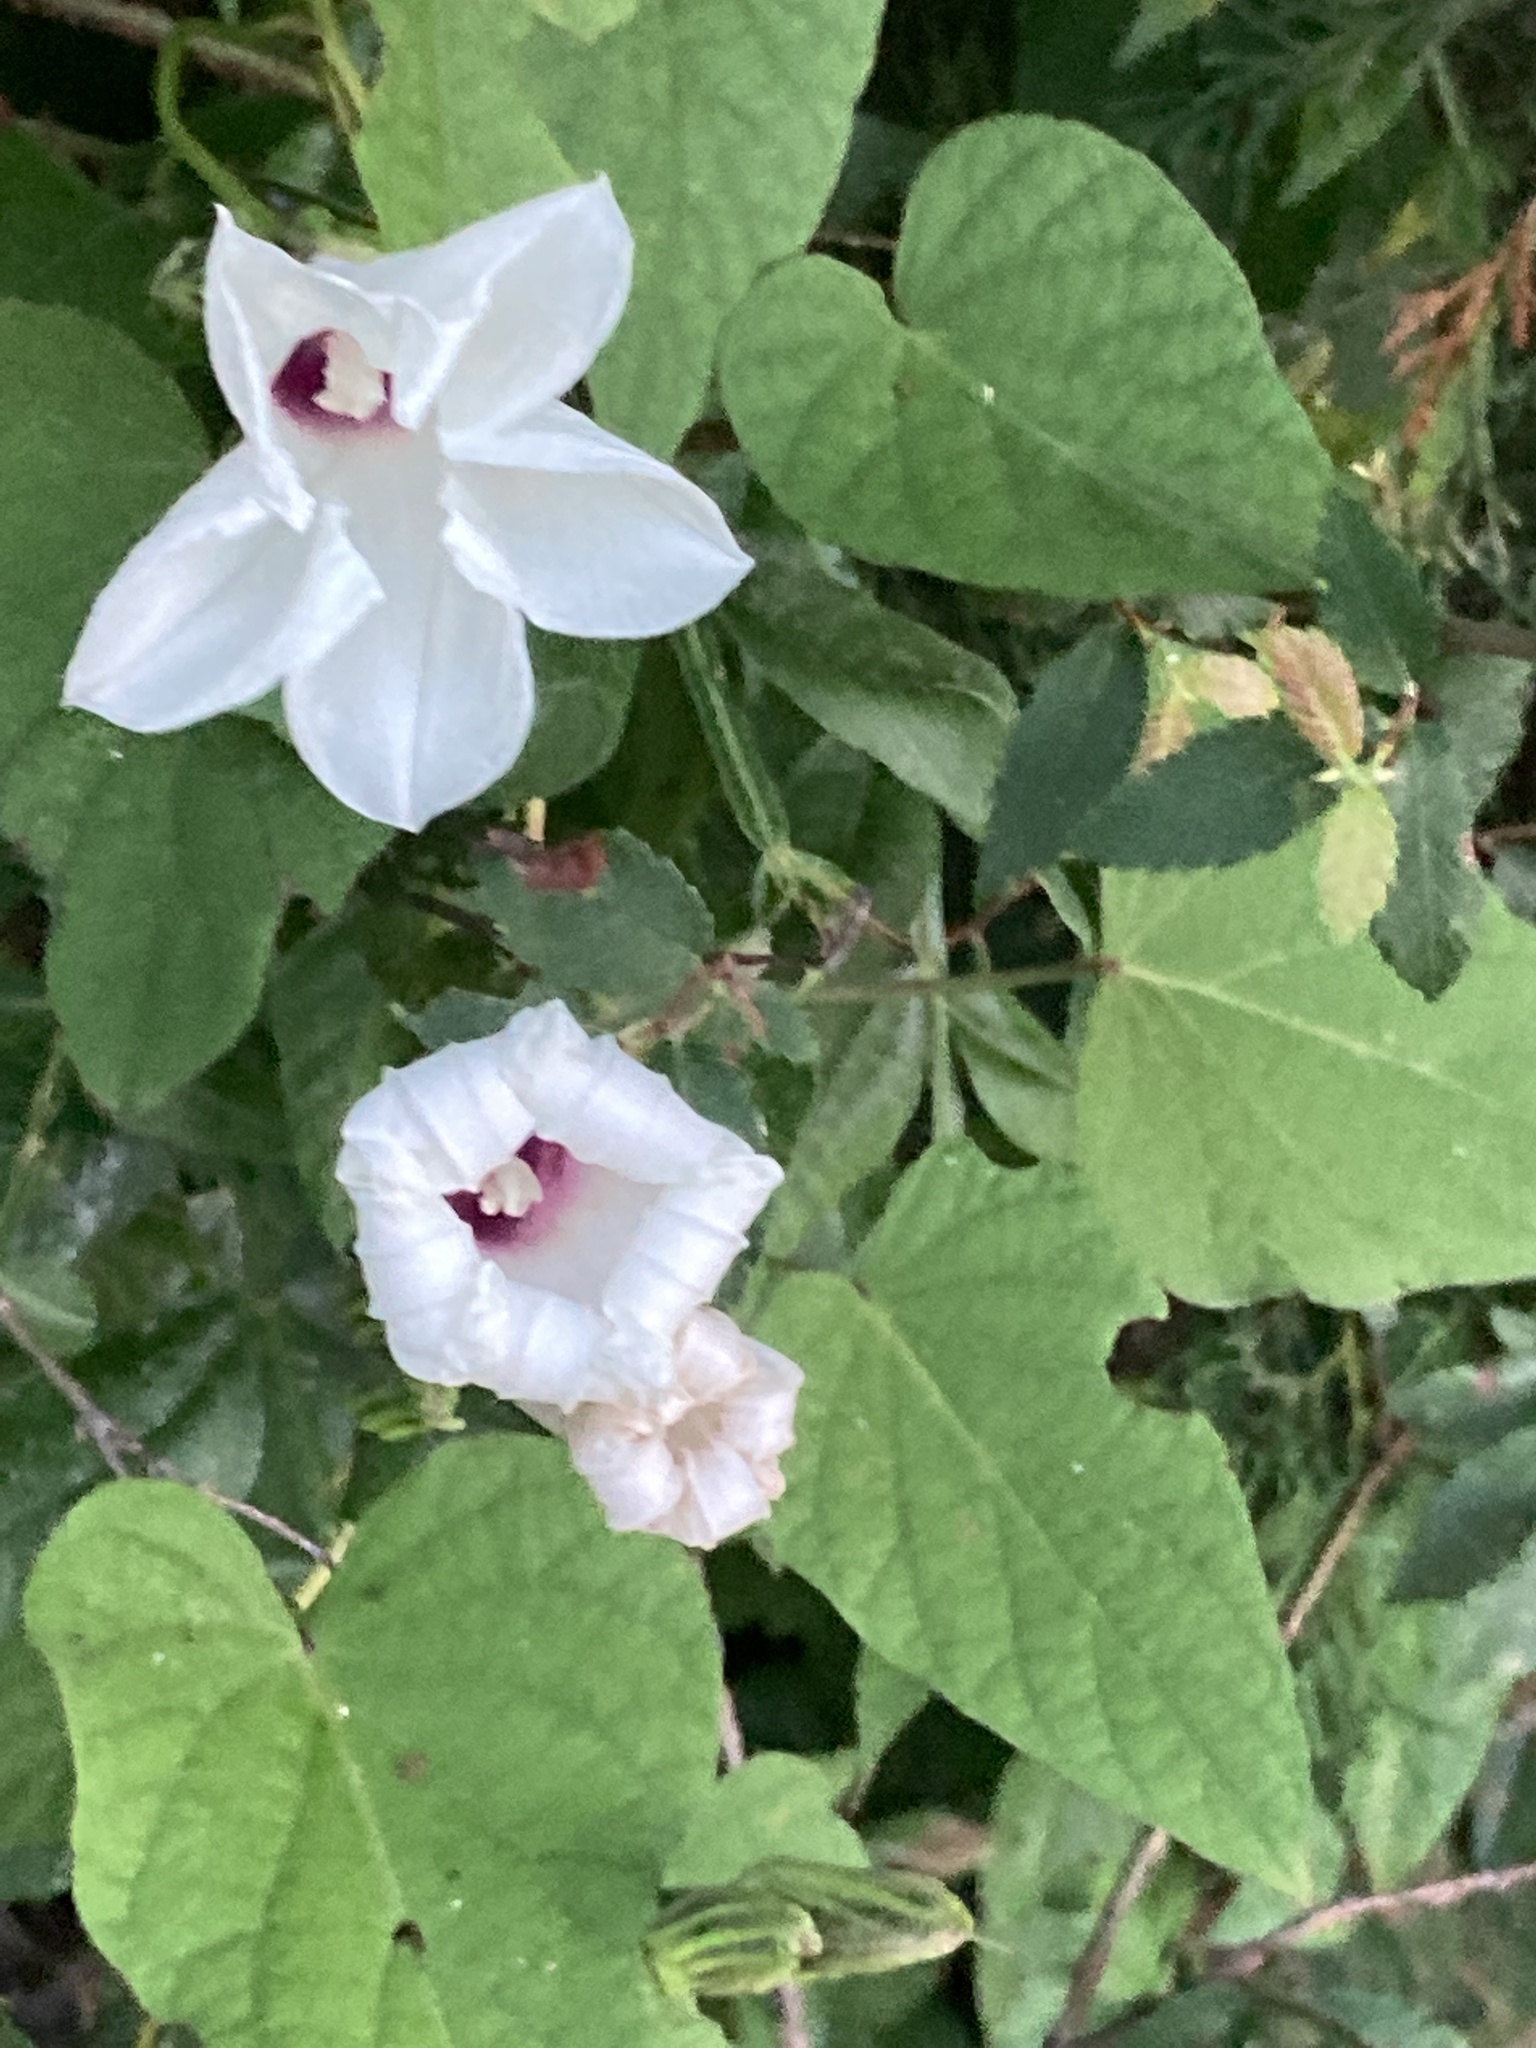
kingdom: Plantae
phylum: Tracheophyta
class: Magnoliopsida
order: Solanales
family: Convolvulaceae
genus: Ipomoea
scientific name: Ipomoea pandurata
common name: Man-of-the-earth
